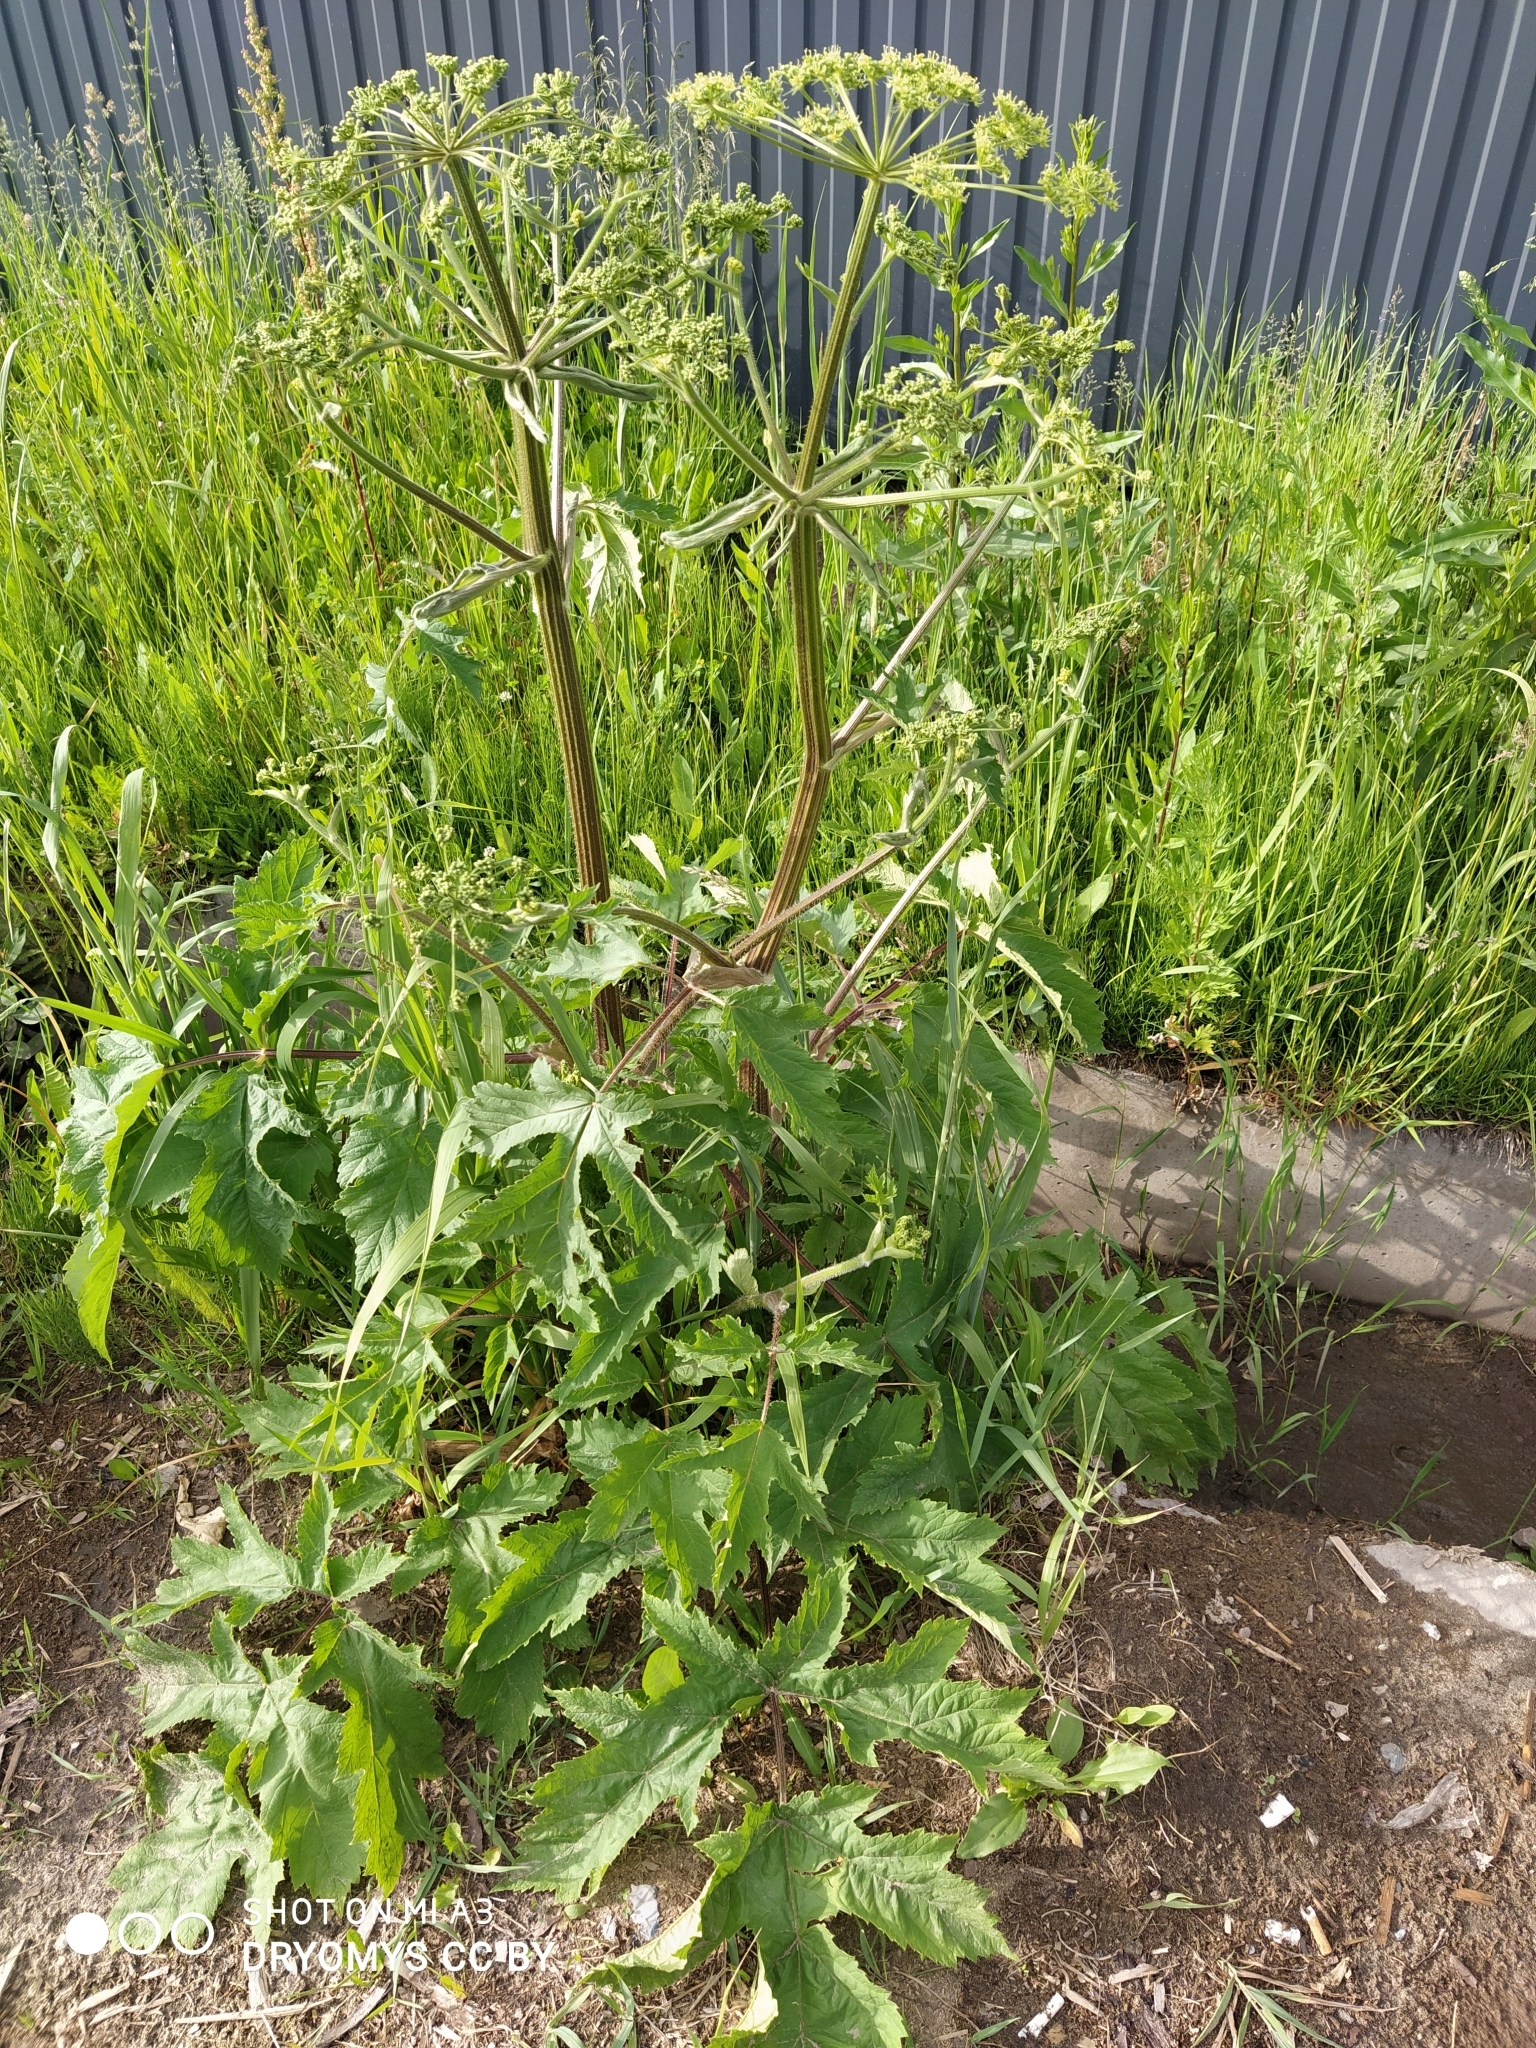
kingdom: Plantae
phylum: Tracheophyta
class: Magnoliopsida
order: Apiales
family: Apiaceae
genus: Heracleum
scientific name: Heracleum sphondylium
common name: Hogweed
